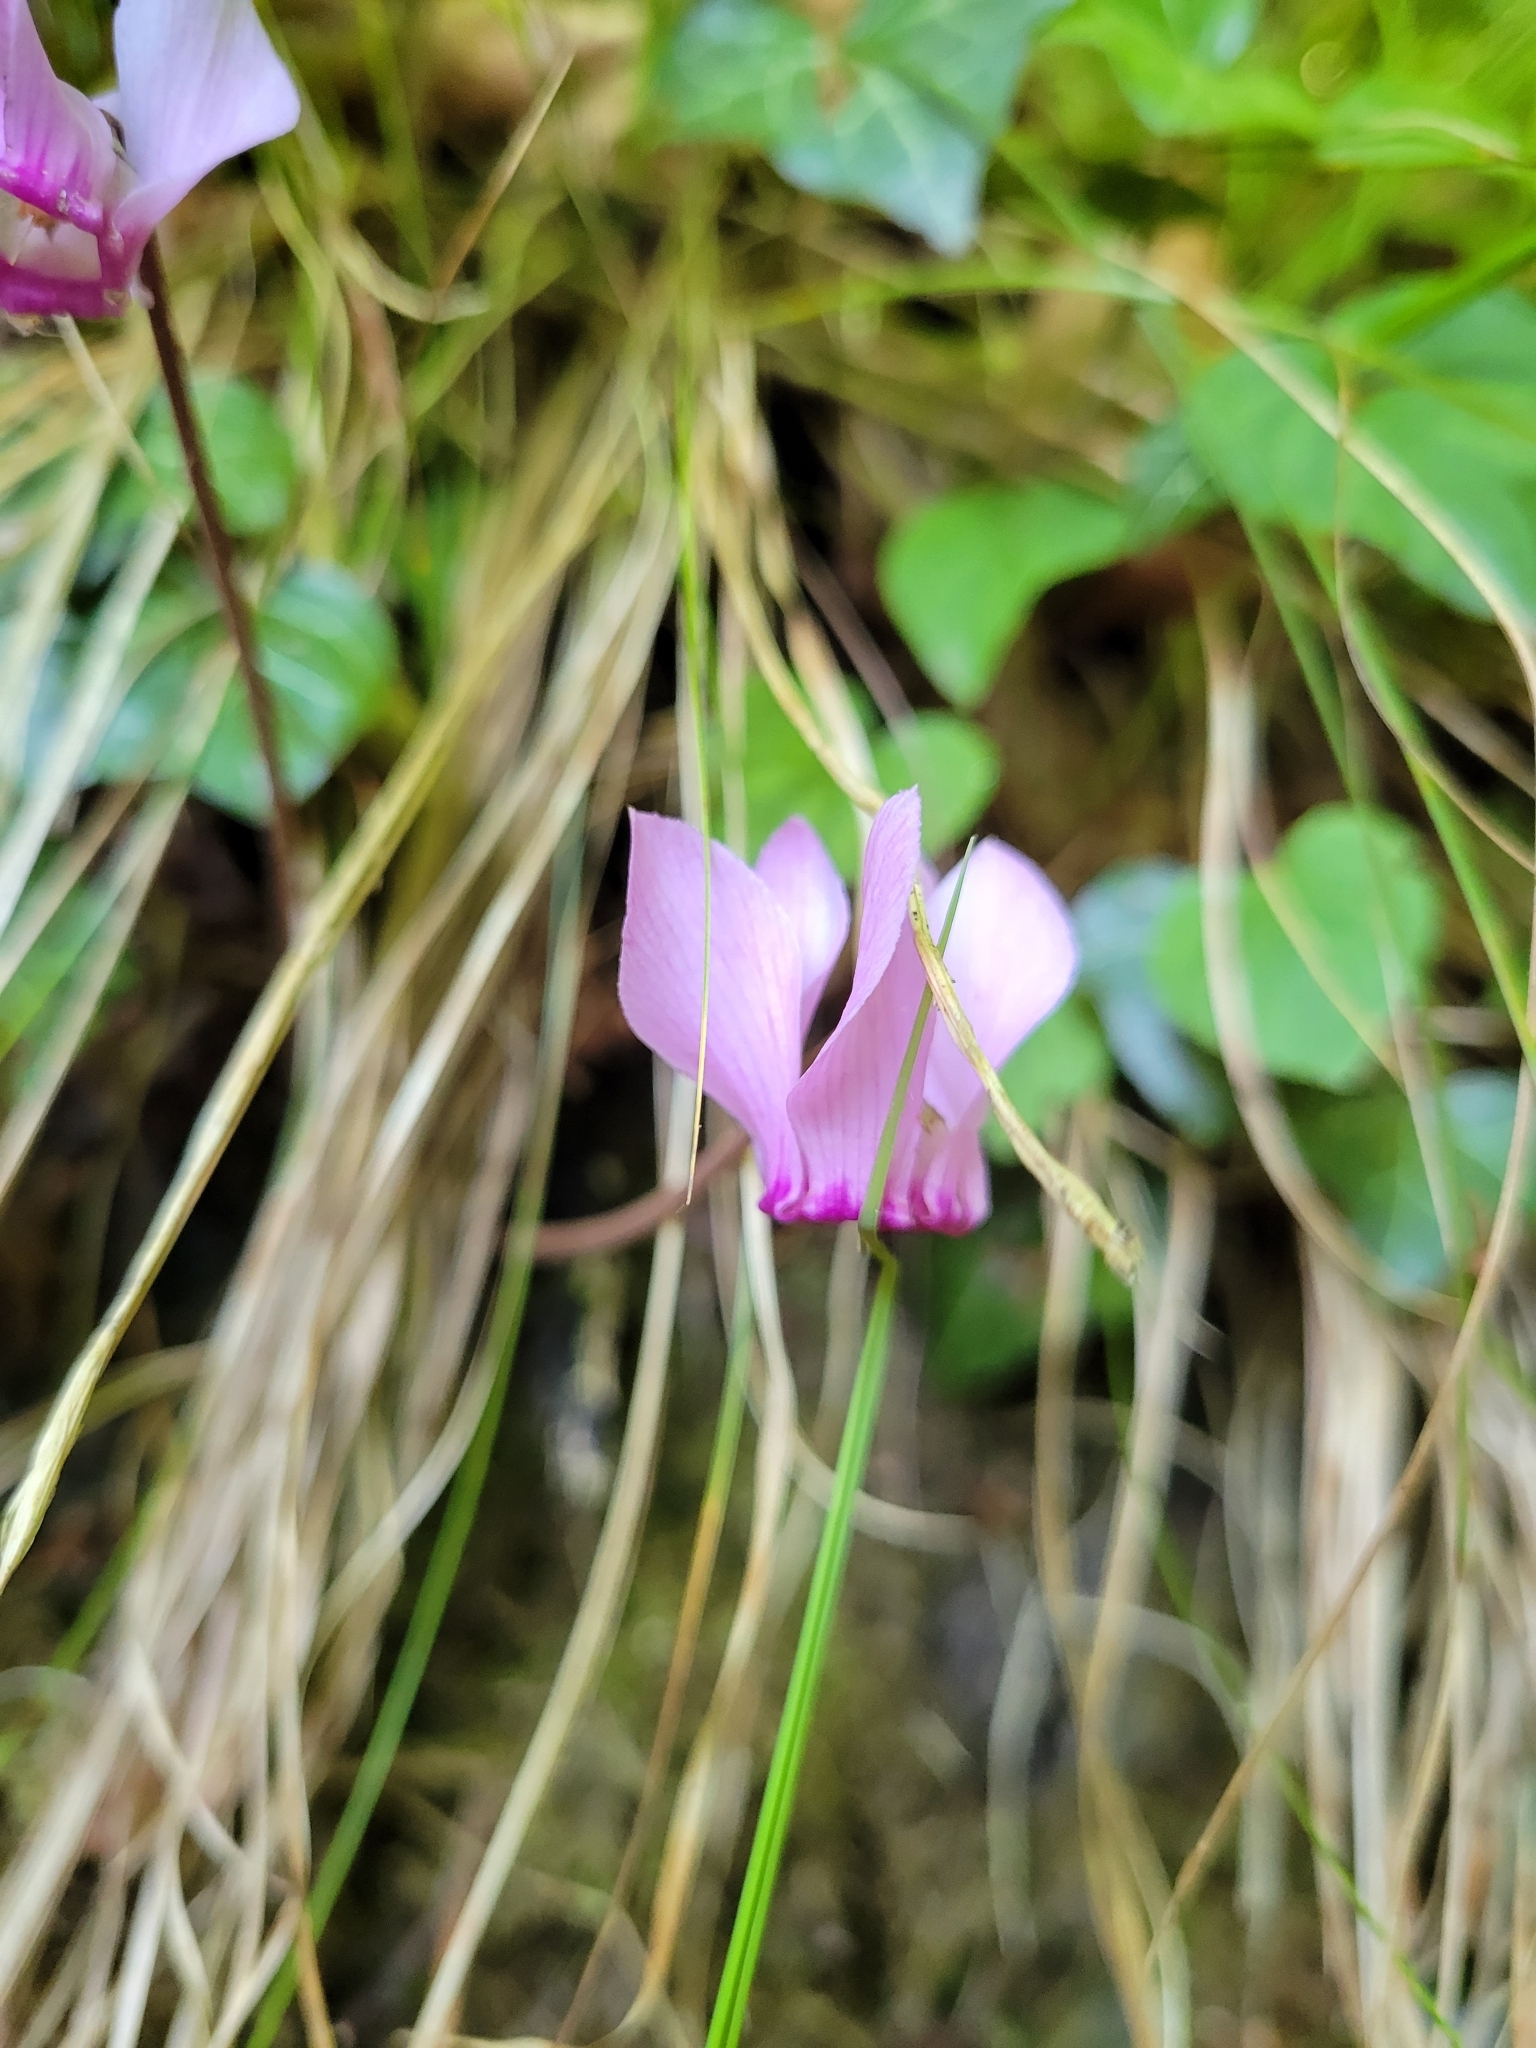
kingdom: Plantae
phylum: Tracheophyta
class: Magnoliopsida
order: Ericales
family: Primulaceae
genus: Cyclamen
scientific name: Cyclamen purpurascens
